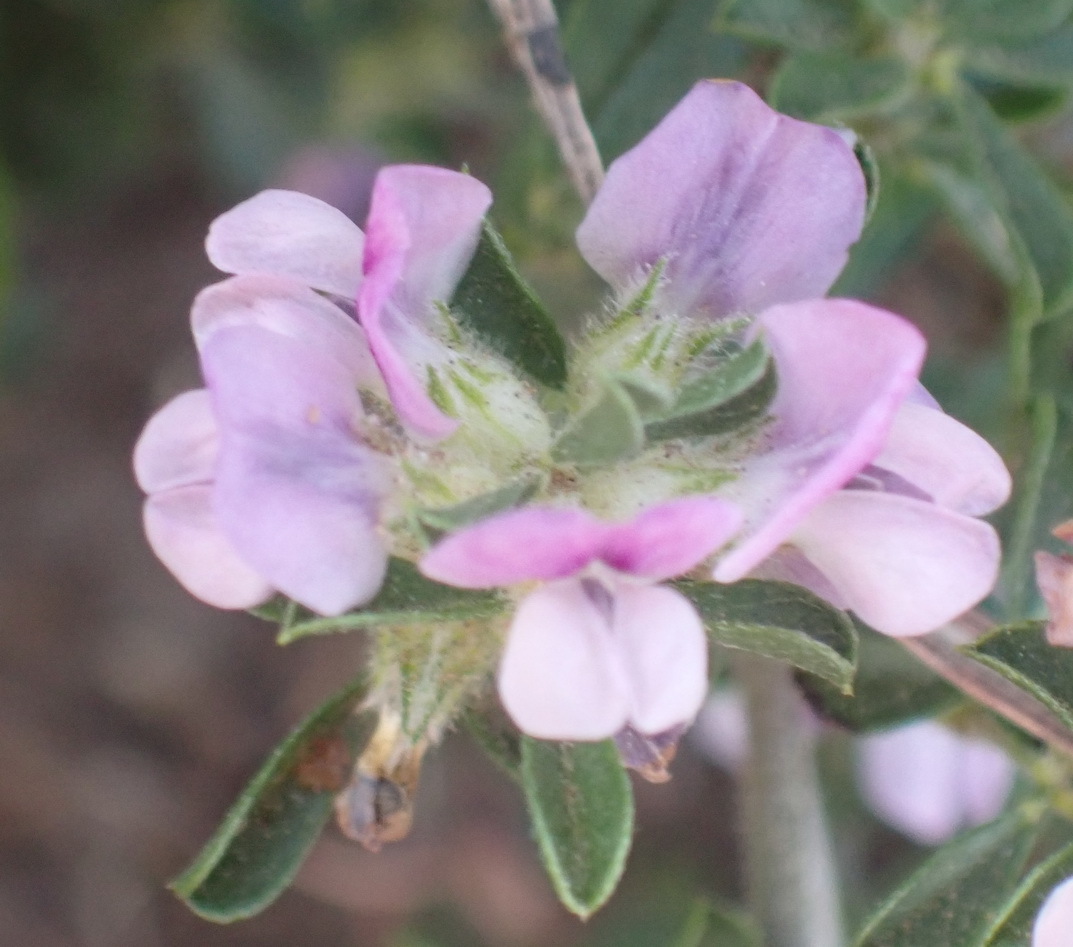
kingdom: Plantae
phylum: Tracheophyta
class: Magnoliopsida
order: Fabales
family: Fabaceae
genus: Psoralea
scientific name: Psoralea
